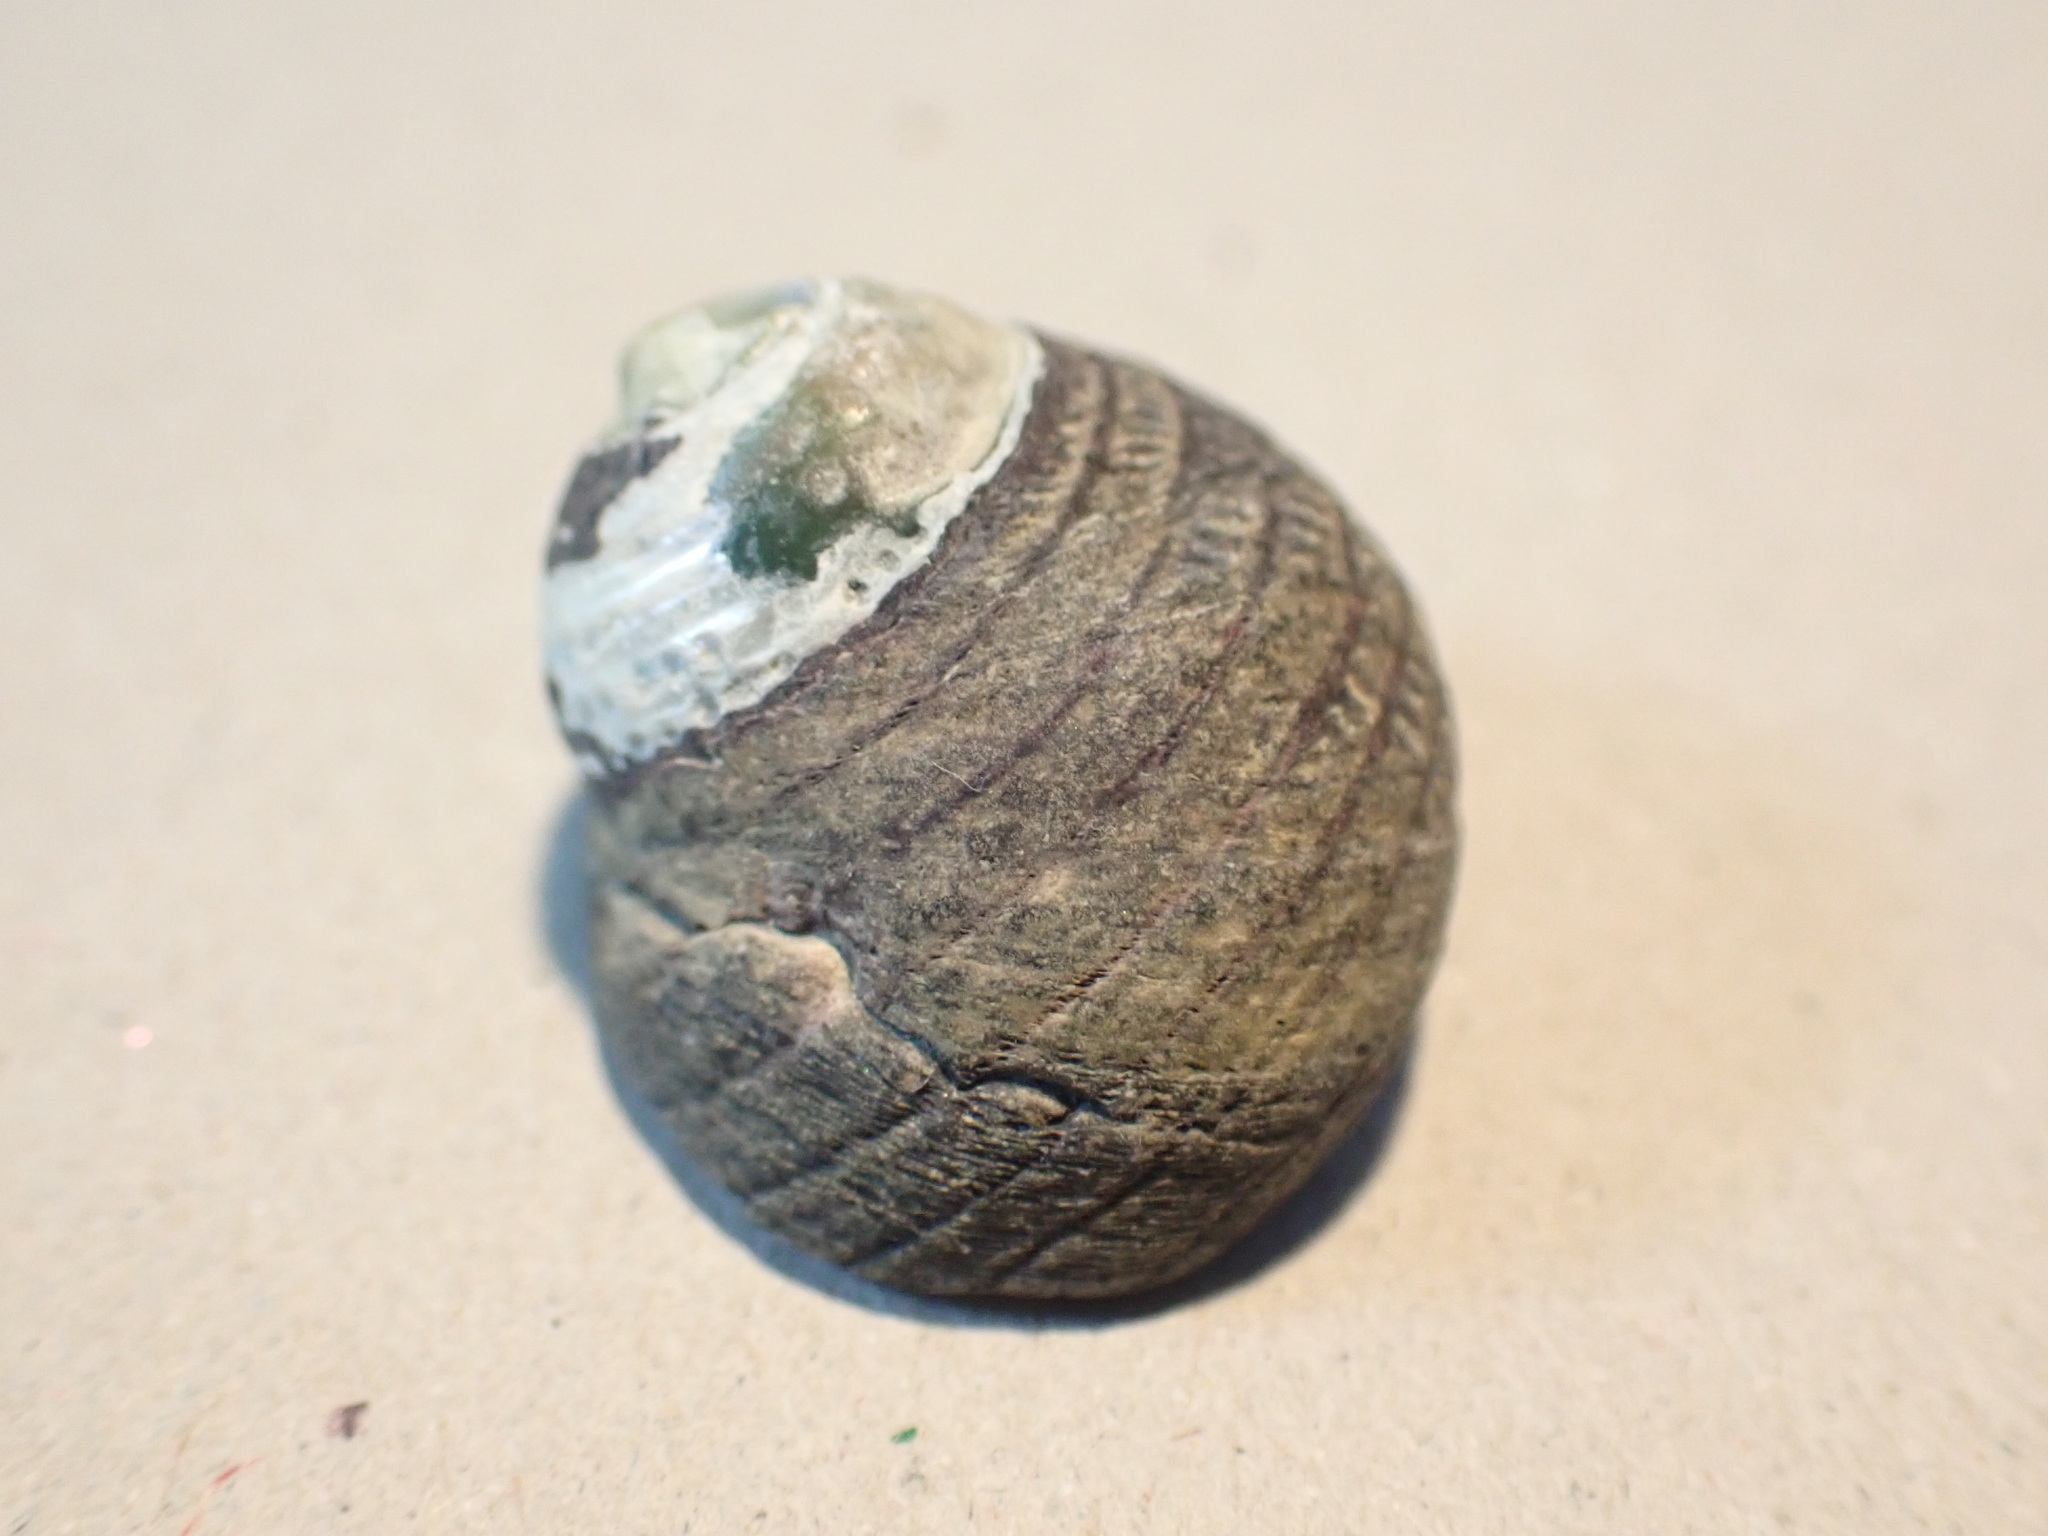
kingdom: Animalia
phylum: Mollusca
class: Gastropoda
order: Trochida
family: Trochidae
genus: Diloma
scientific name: Diloma aethiops
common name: Scorched monodont
